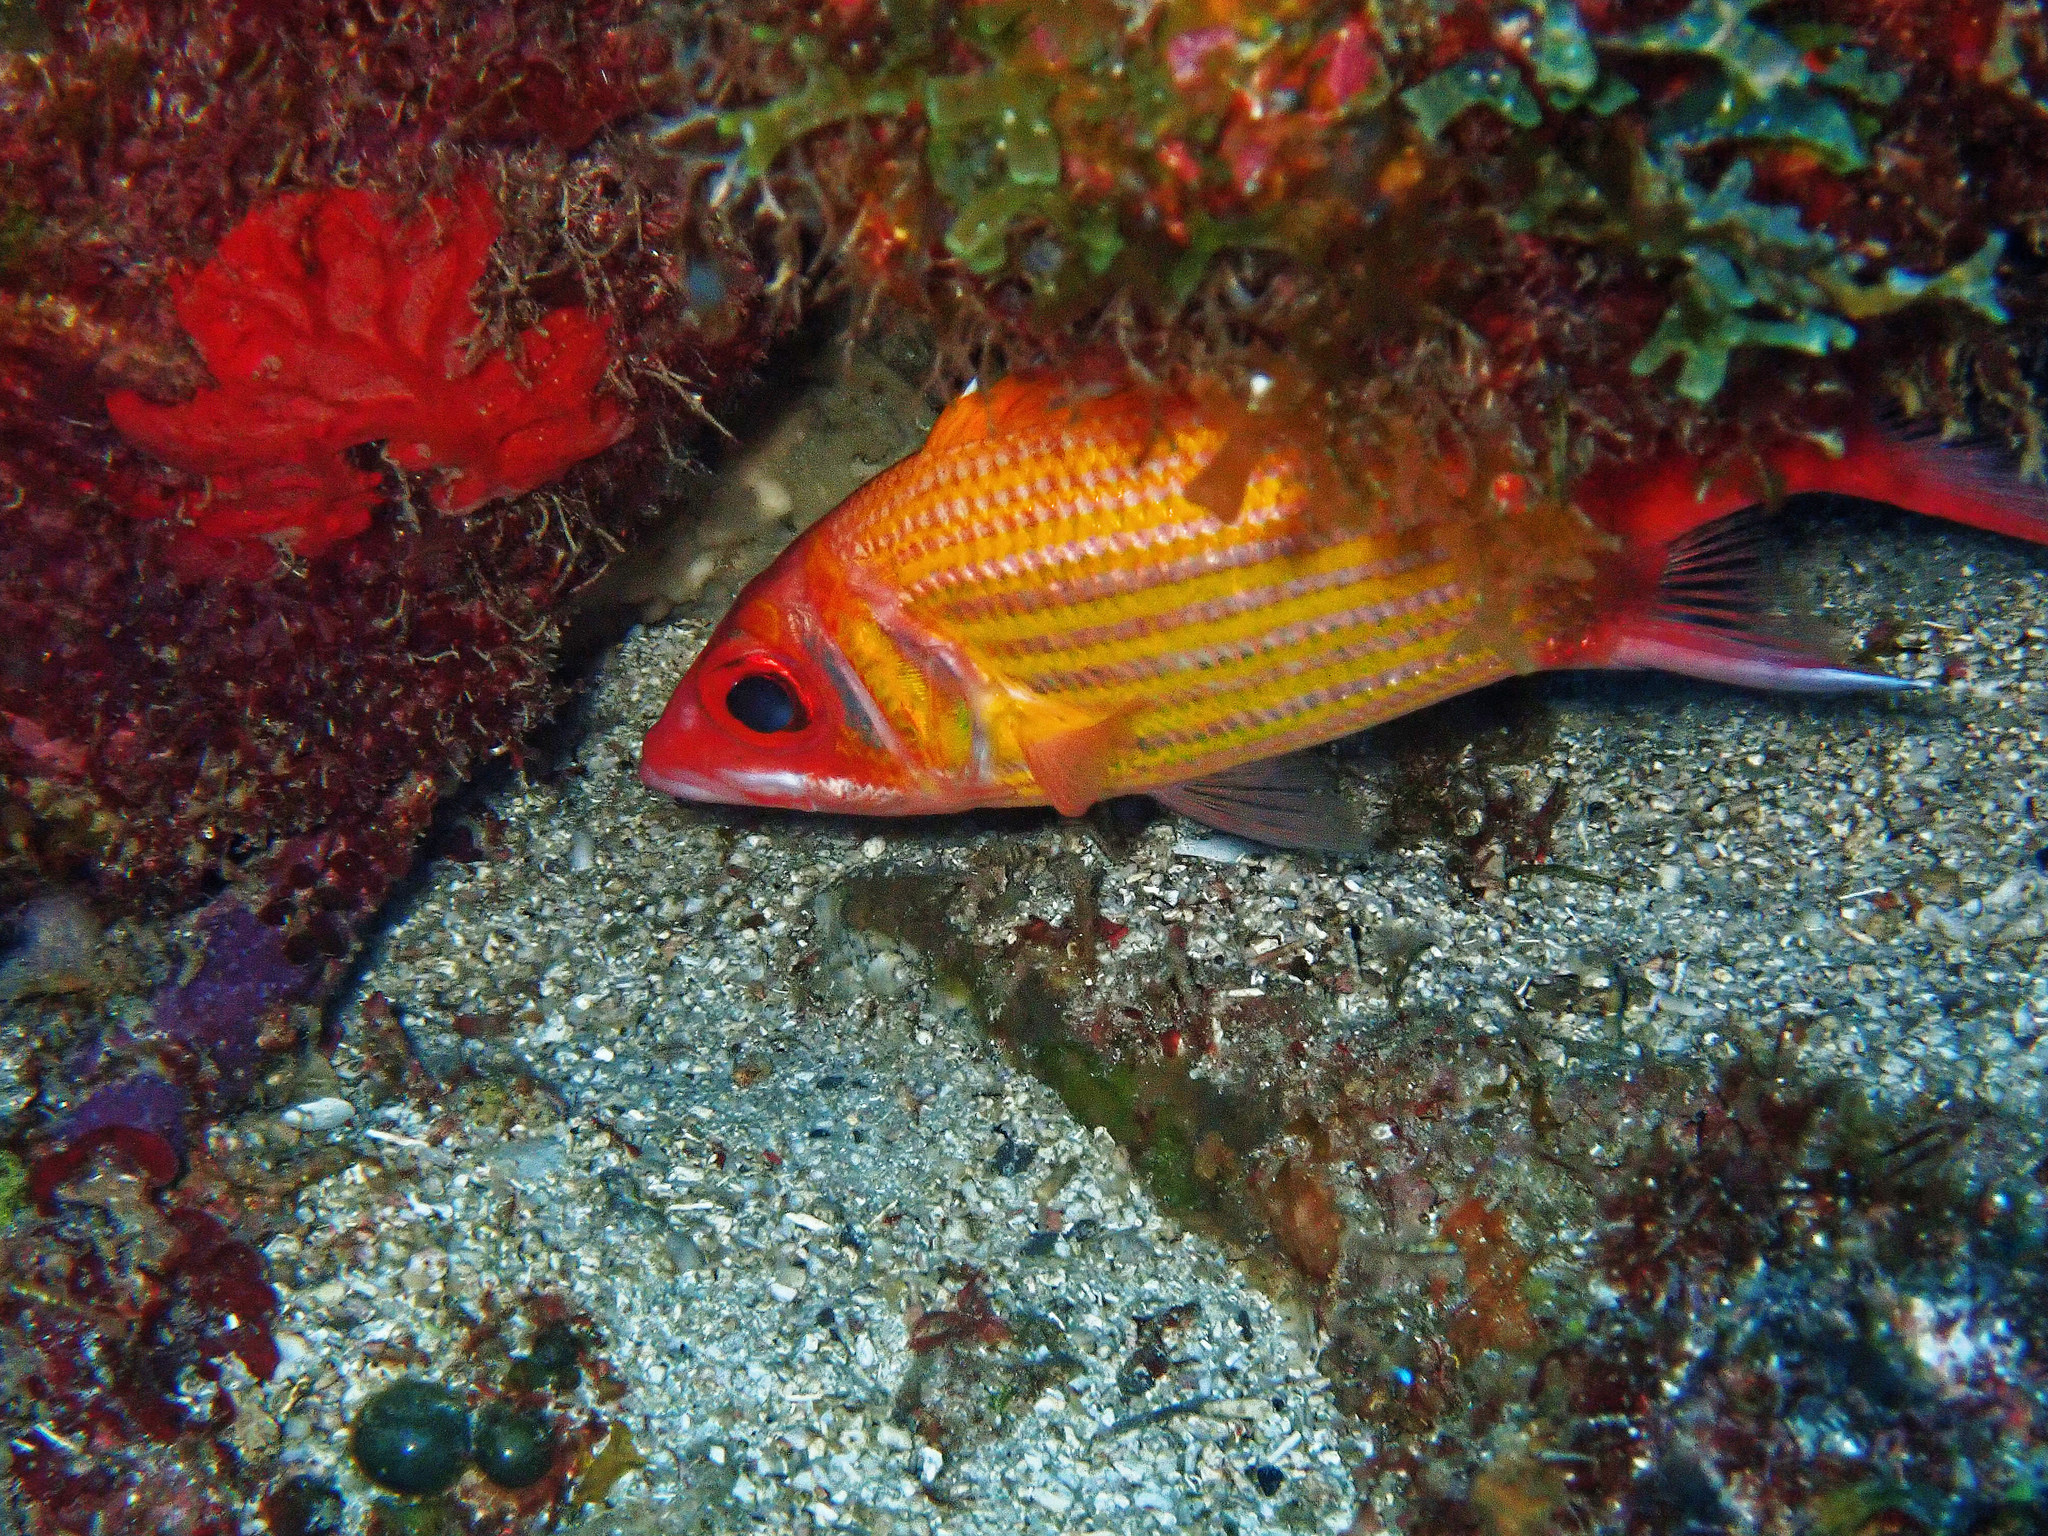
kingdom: Animalia
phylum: Chordata
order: Beryciformes
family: Holocentridae
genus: Neoniphon
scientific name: Neoniphon marianus
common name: Longjaw squirrelfish
